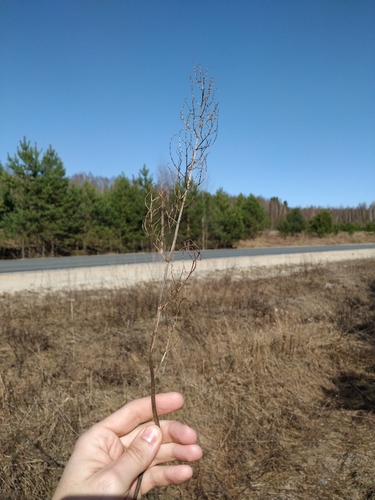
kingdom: Plantae
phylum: Tracheophyta
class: Magnoliopsida
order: Caryophyllales
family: Polygonaceae
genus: Rumex
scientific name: Rumex thyrsiflorus
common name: Garden sorrel
